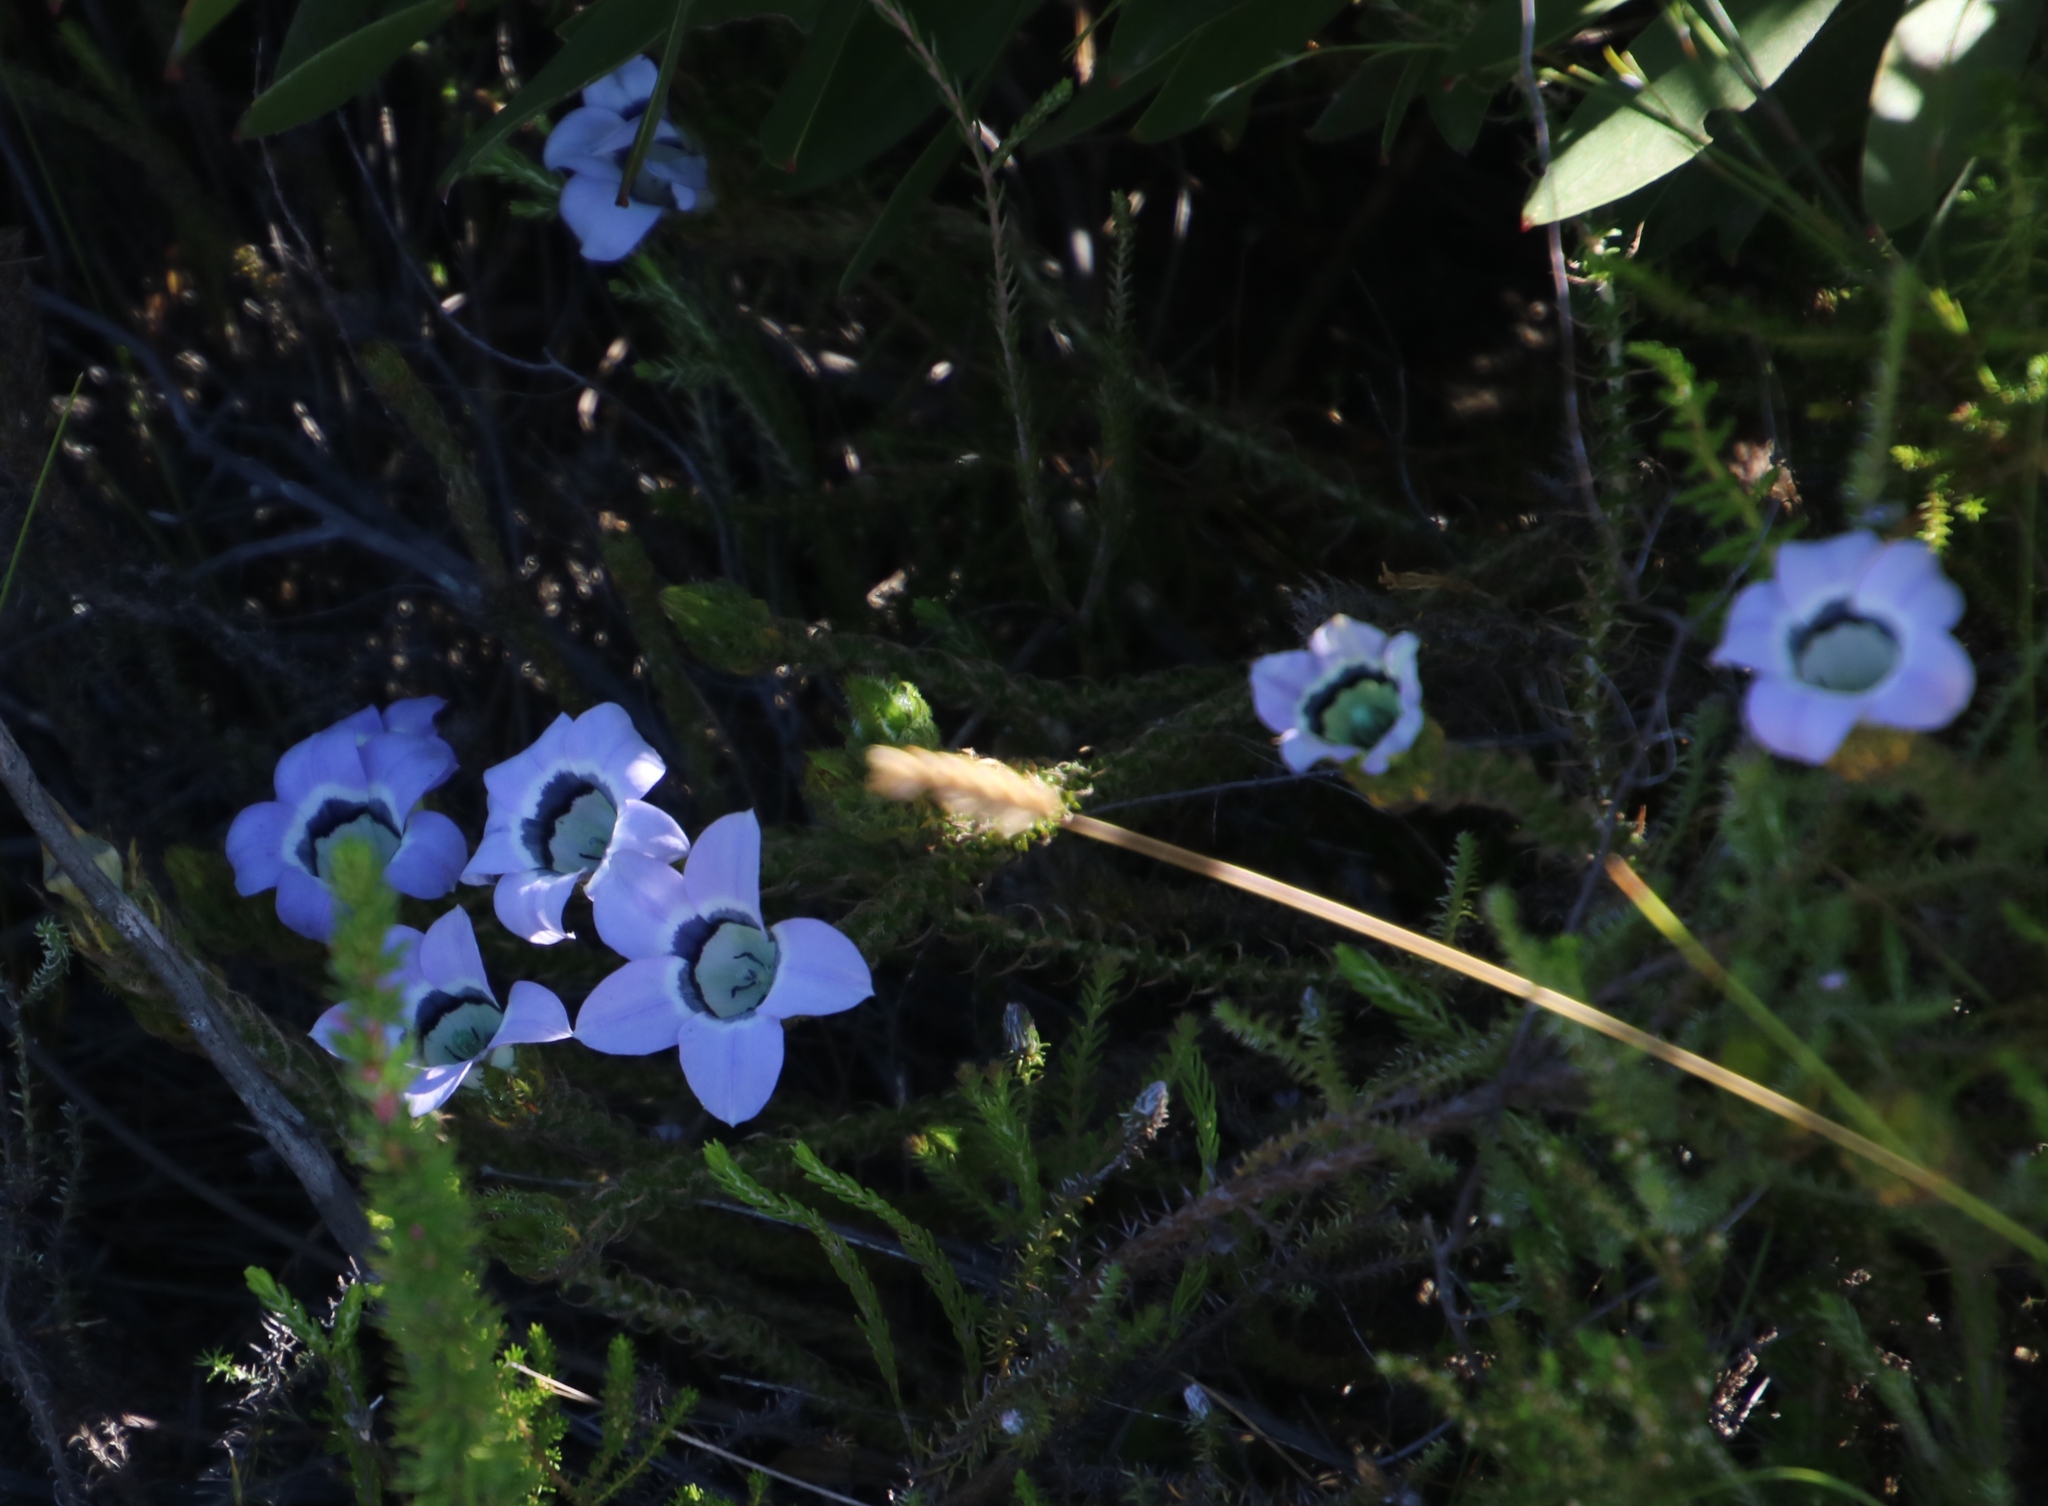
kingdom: Plantae
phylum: Tracheophyta
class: Magnoliopsida
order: Asterales
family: Campanulaceae
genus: Roella
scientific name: Roella ciliata
